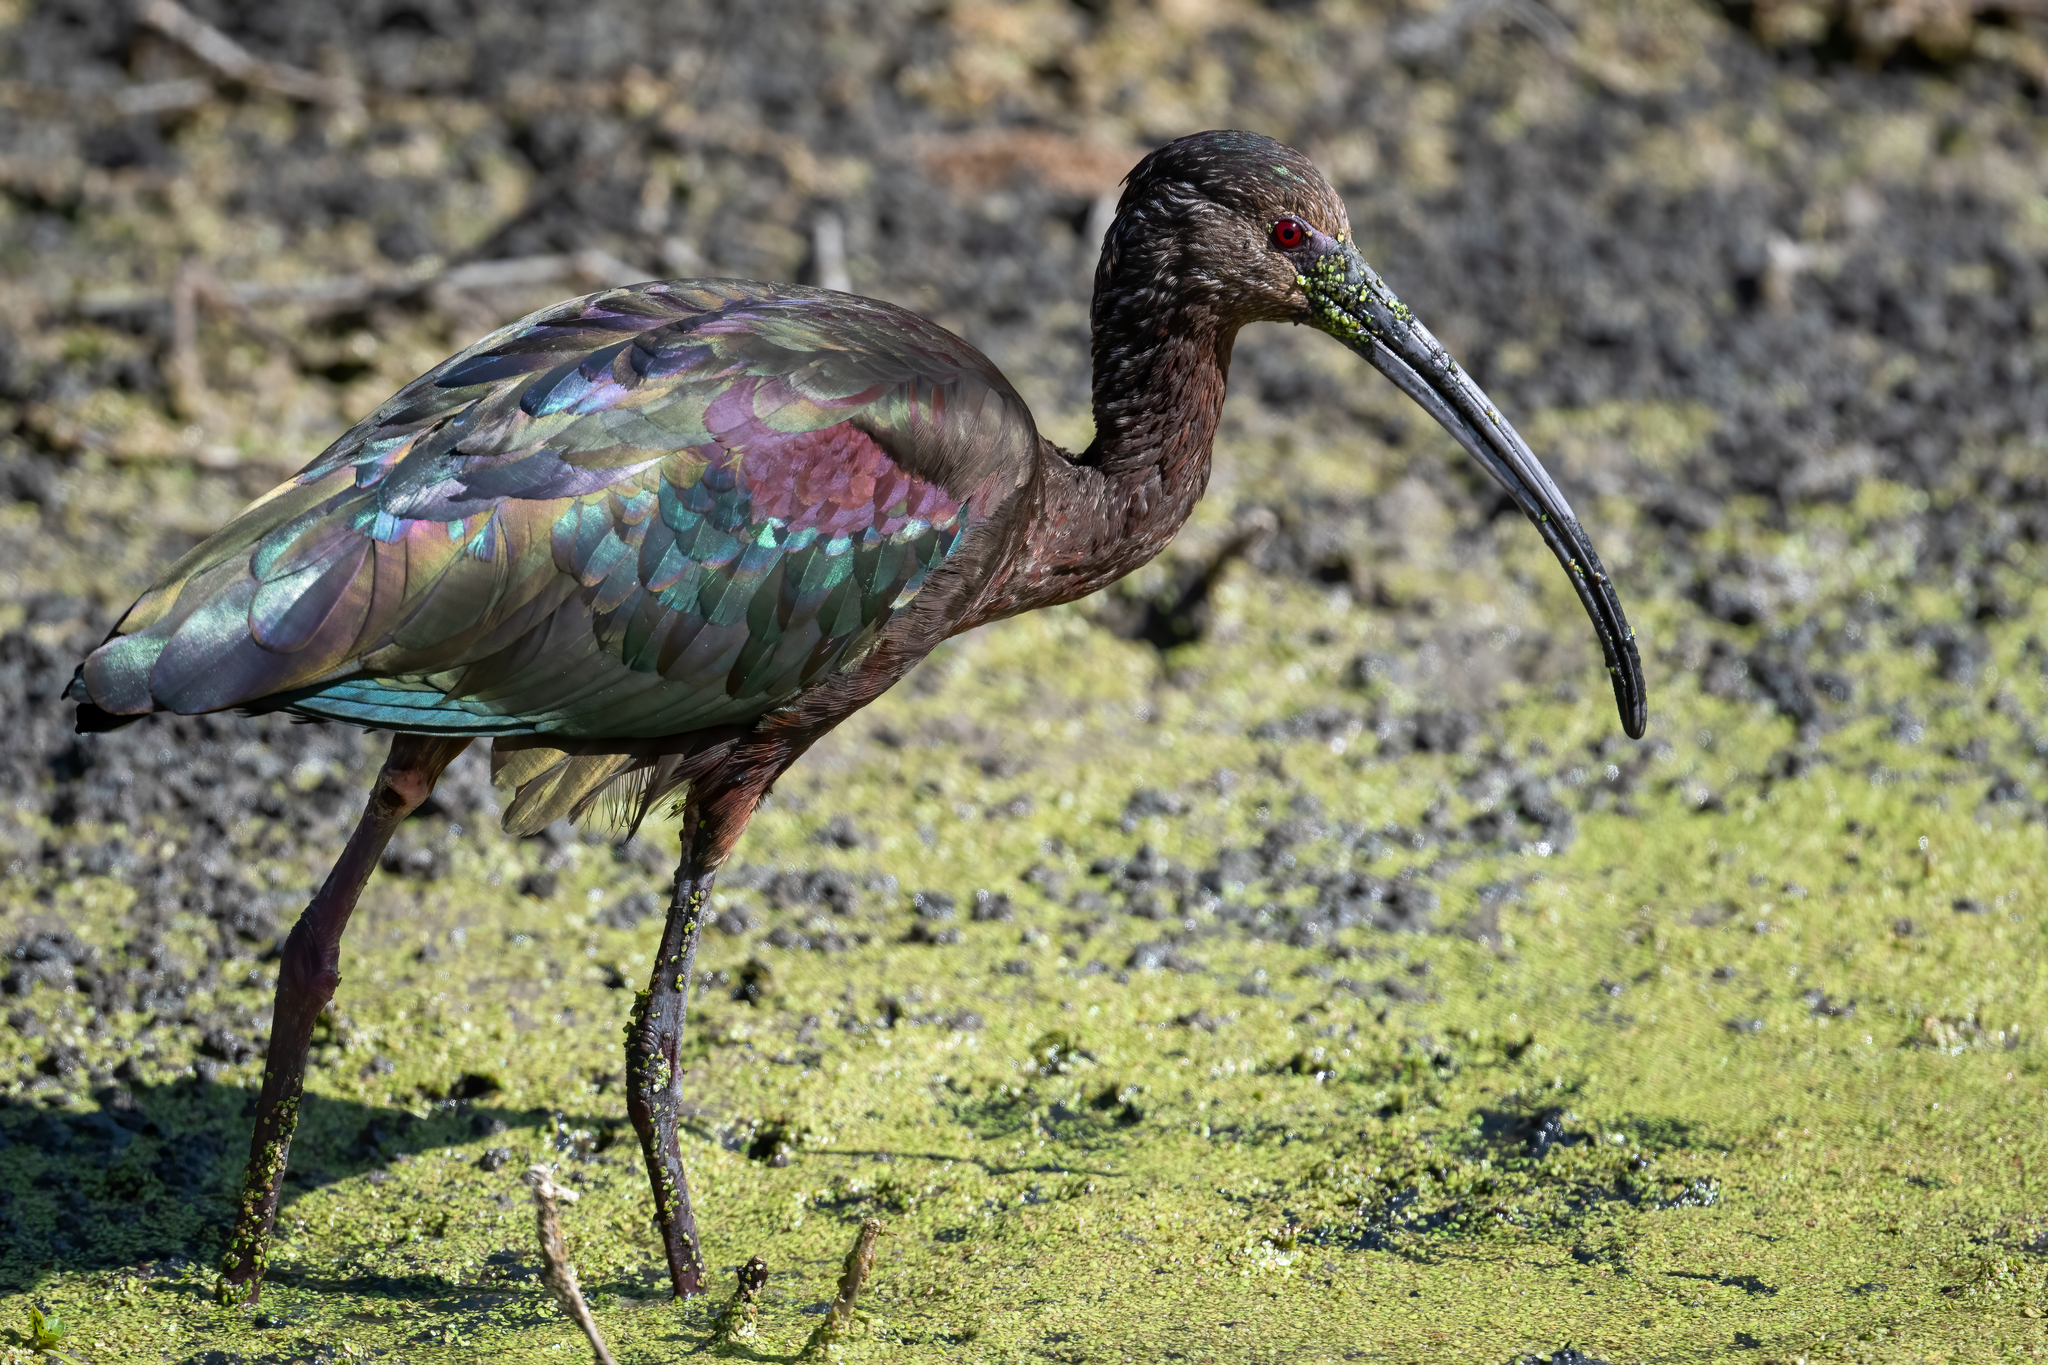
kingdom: Animalia
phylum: Chordata
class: Aves
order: Pelecaniformes
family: Threskiornithidae
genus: Plegadis
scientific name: Plegadis chihi
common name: White-faced ibis
